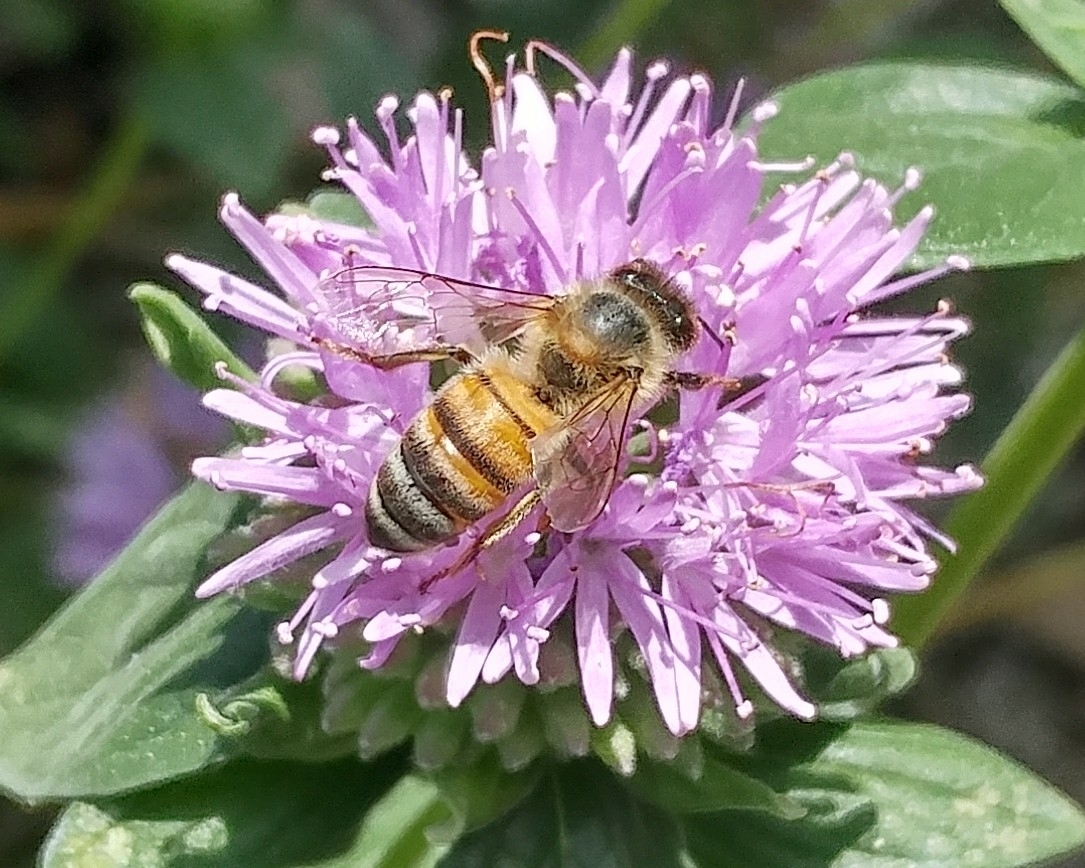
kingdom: Animalia
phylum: Arthropoda
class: Insecta
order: Hymenoptera
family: Apidae
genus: Apis
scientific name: Apis mellifera
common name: Honey bee
